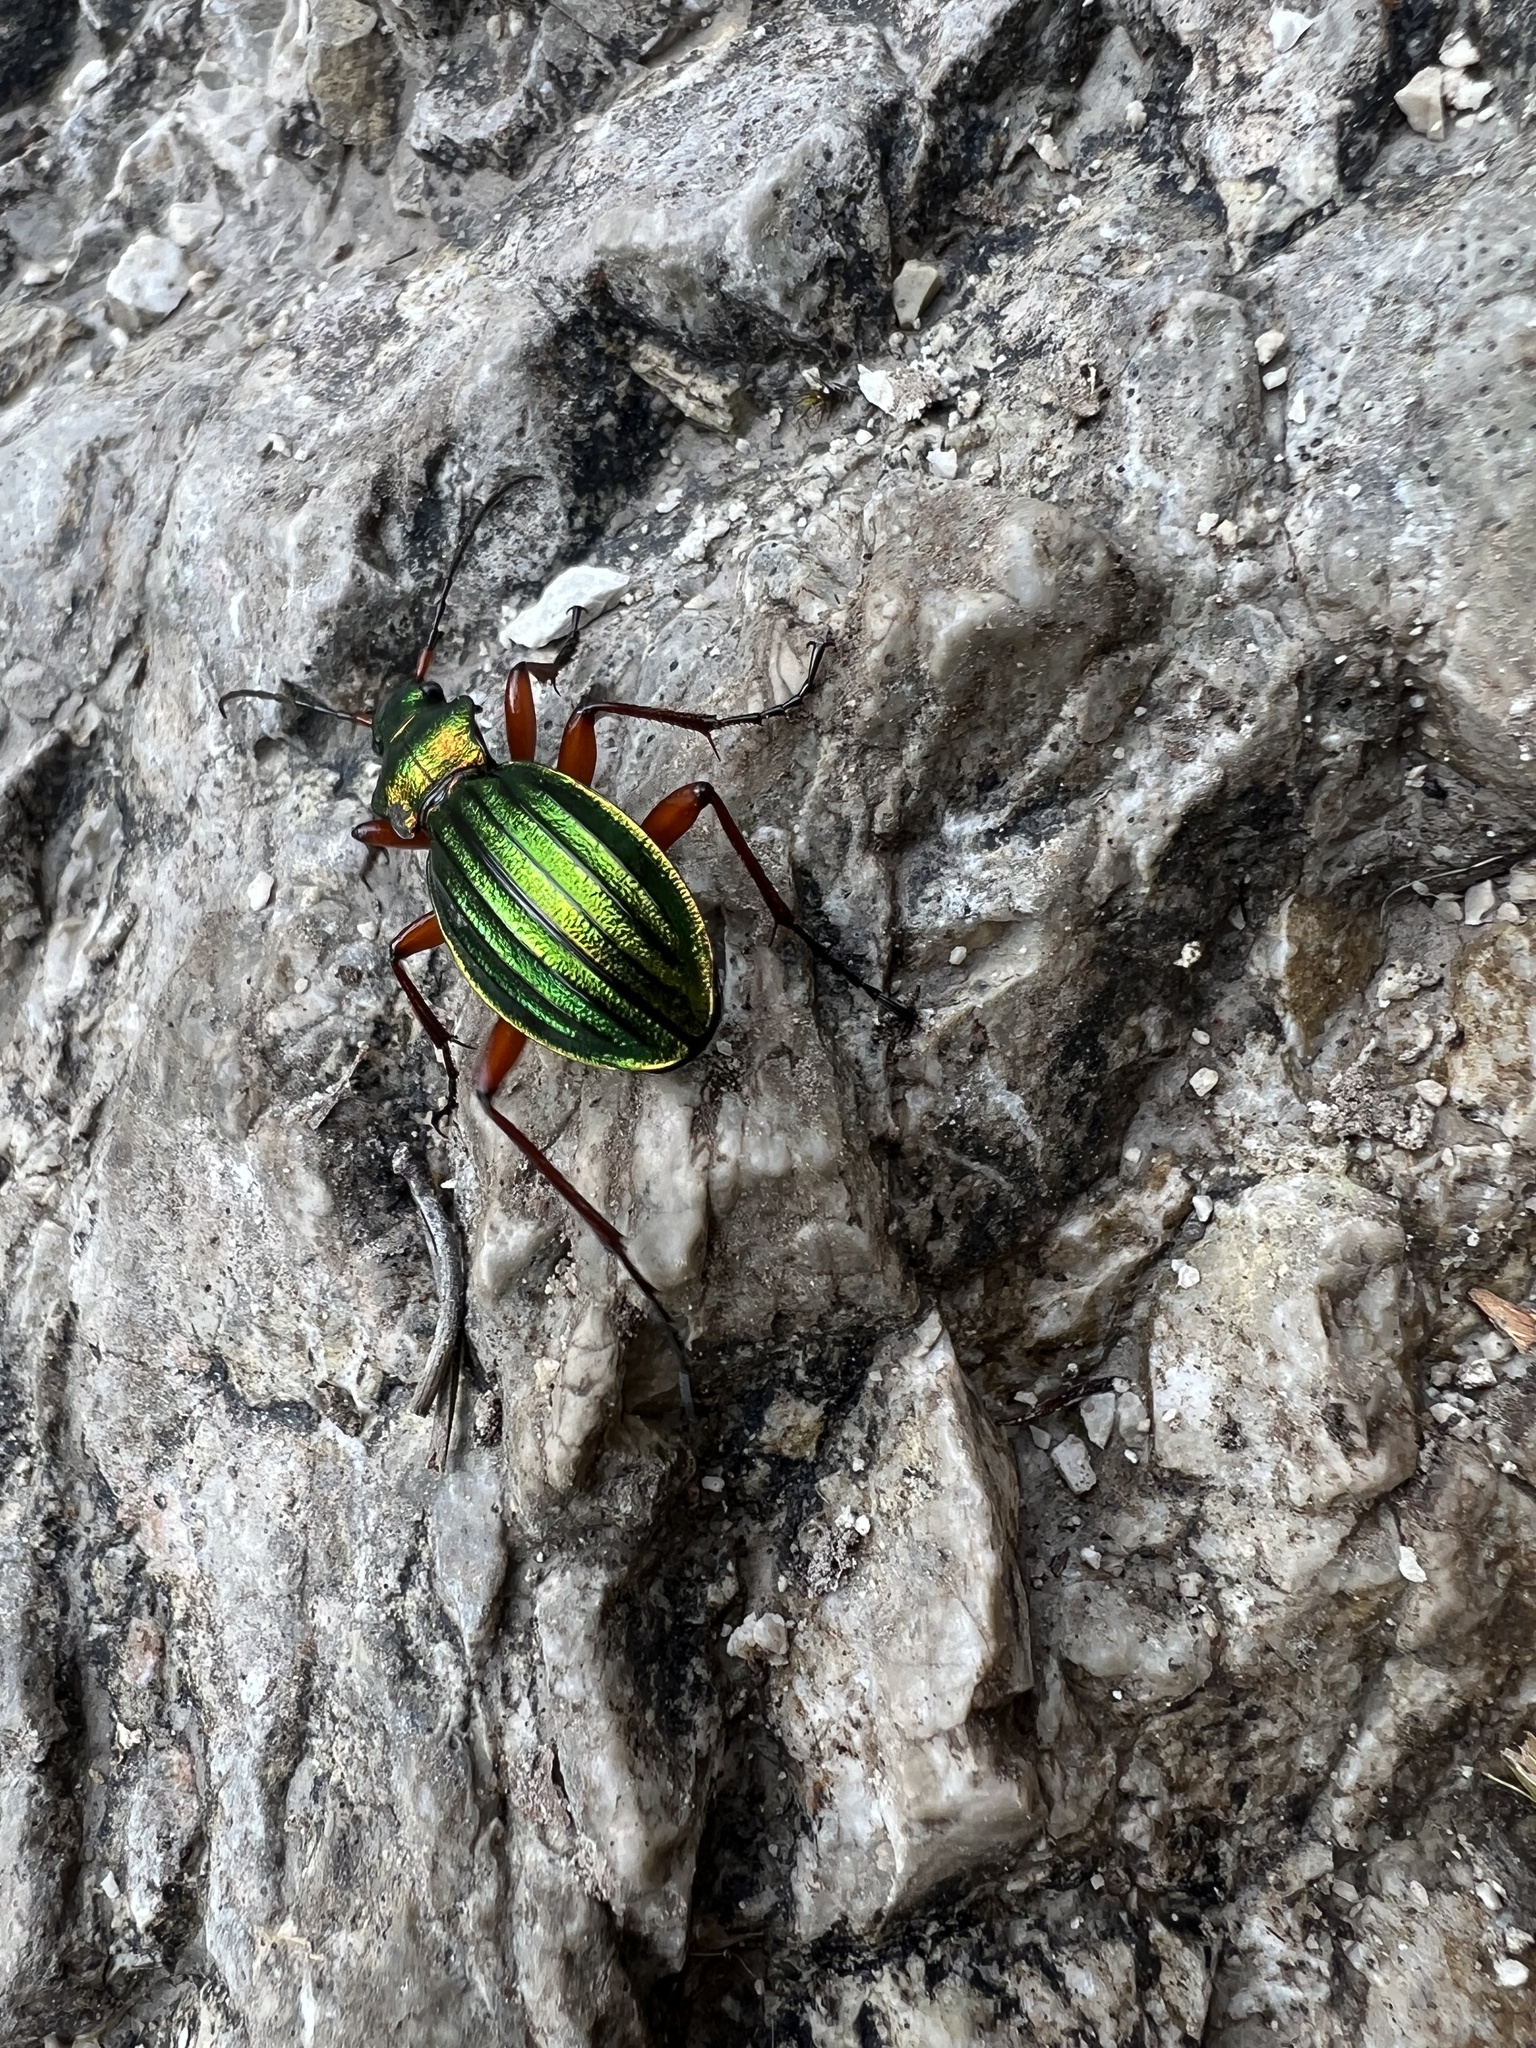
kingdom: Animalia
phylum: Arthropoda
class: Insecta
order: Coleoptera
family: Carabidae
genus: Carabus
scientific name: Carabus auronitens
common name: Carabus auronitens
